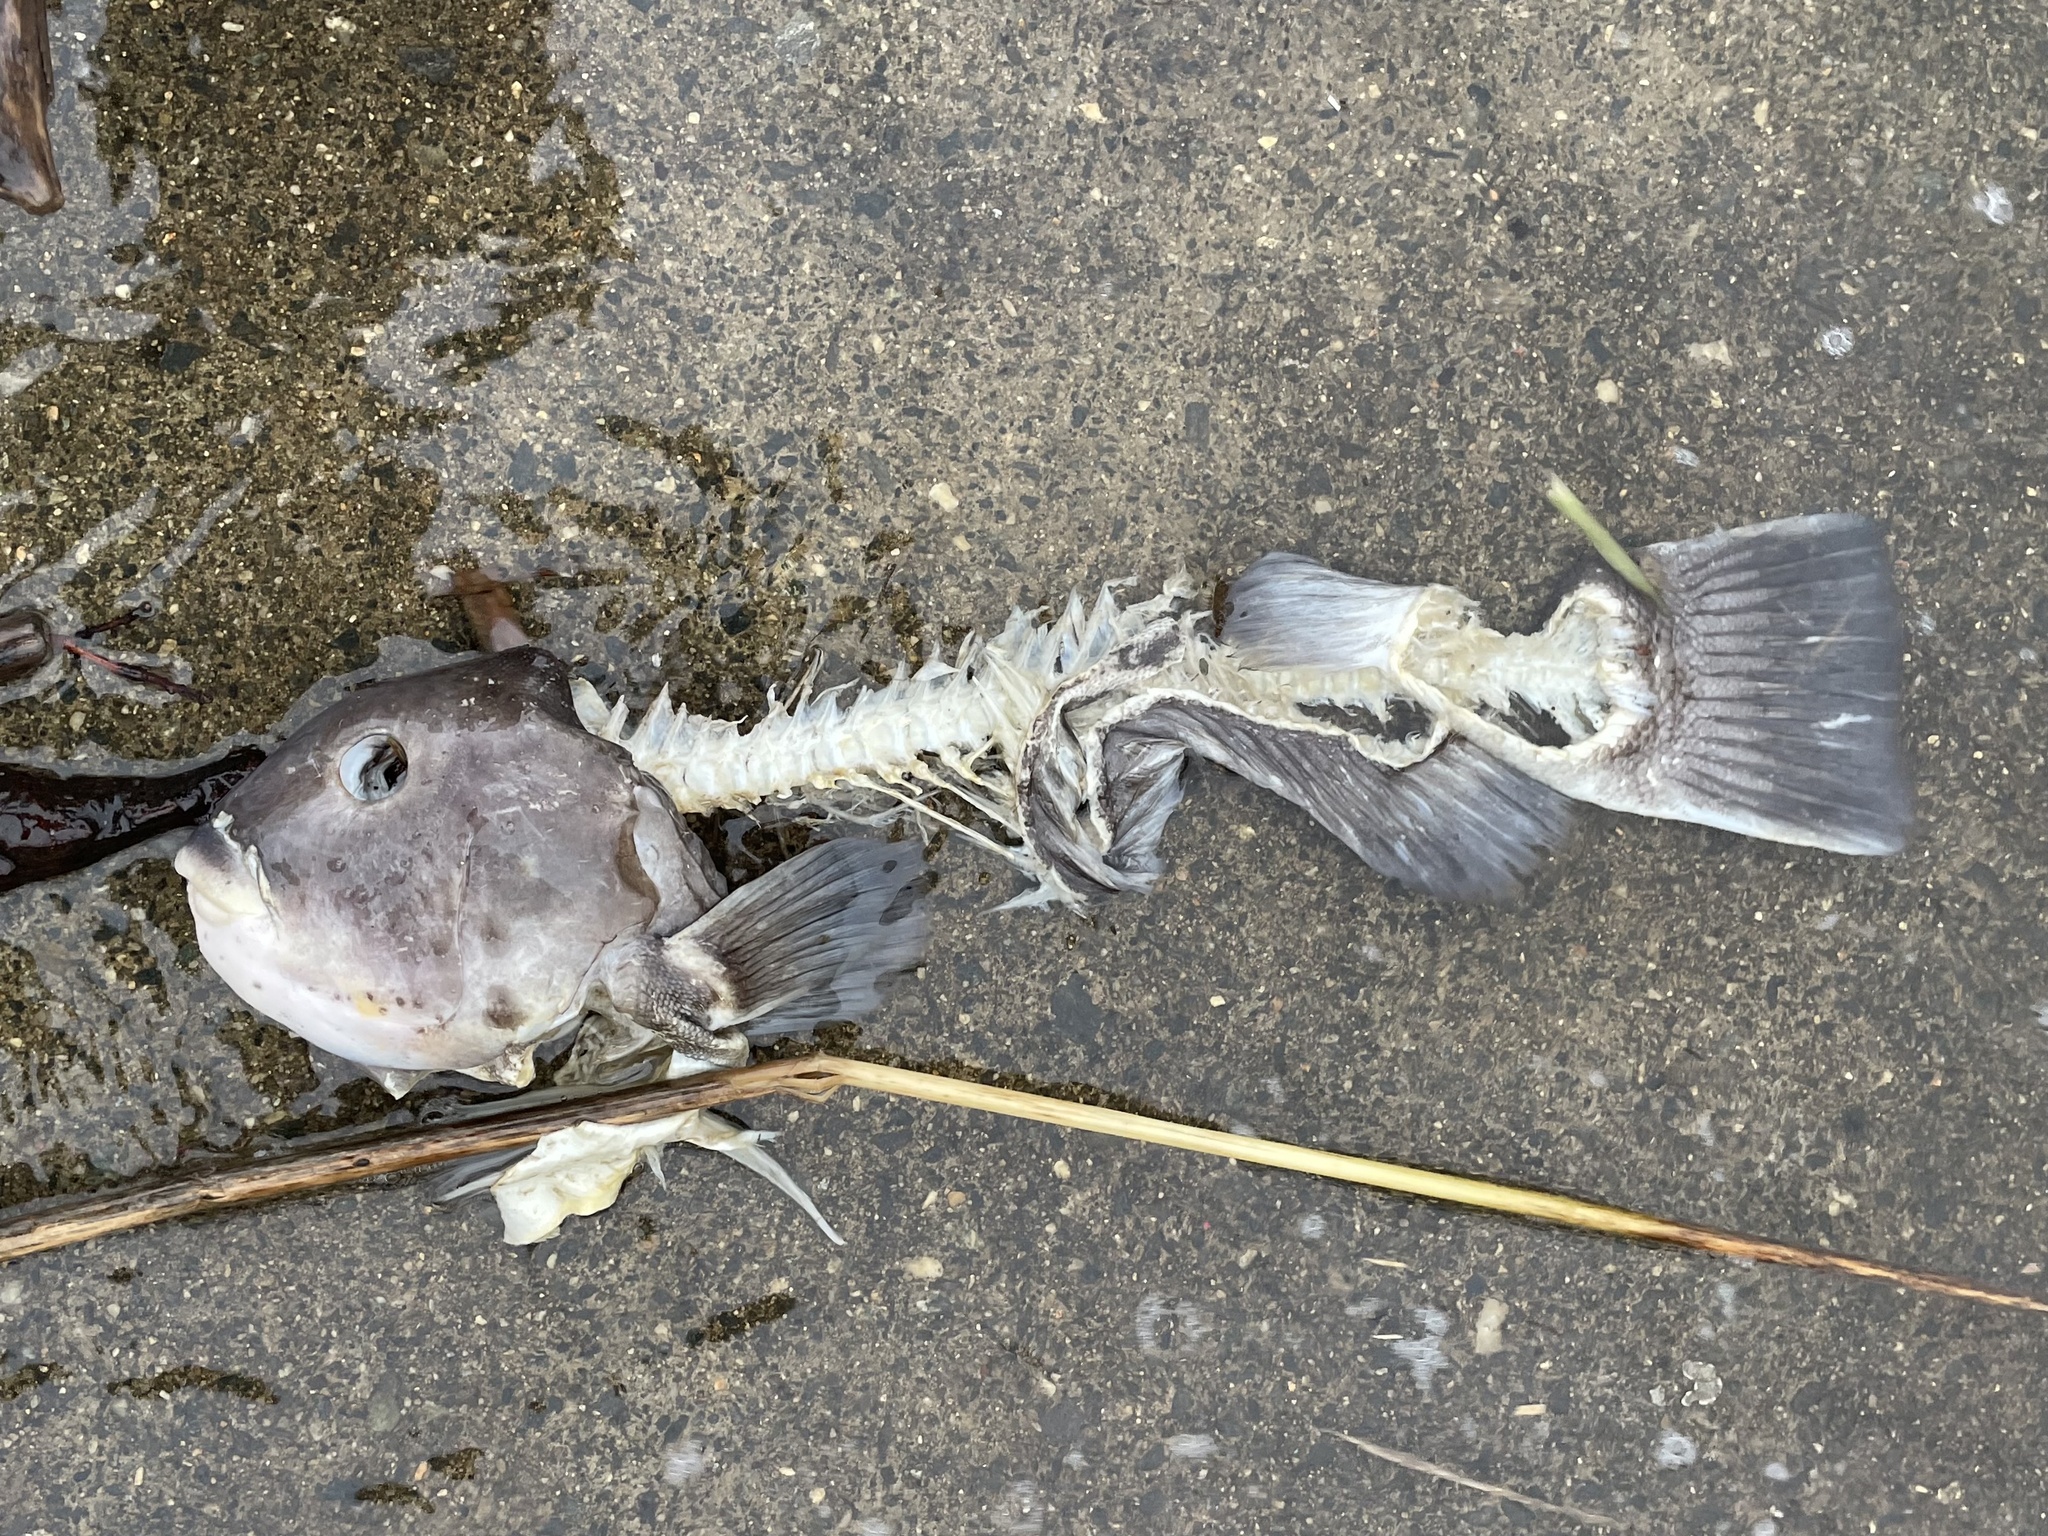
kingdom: Animalia
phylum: Chordata
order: Perciformes
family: Labridae
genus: Tautoga
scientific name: Tautoga onitis
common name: Tautog
